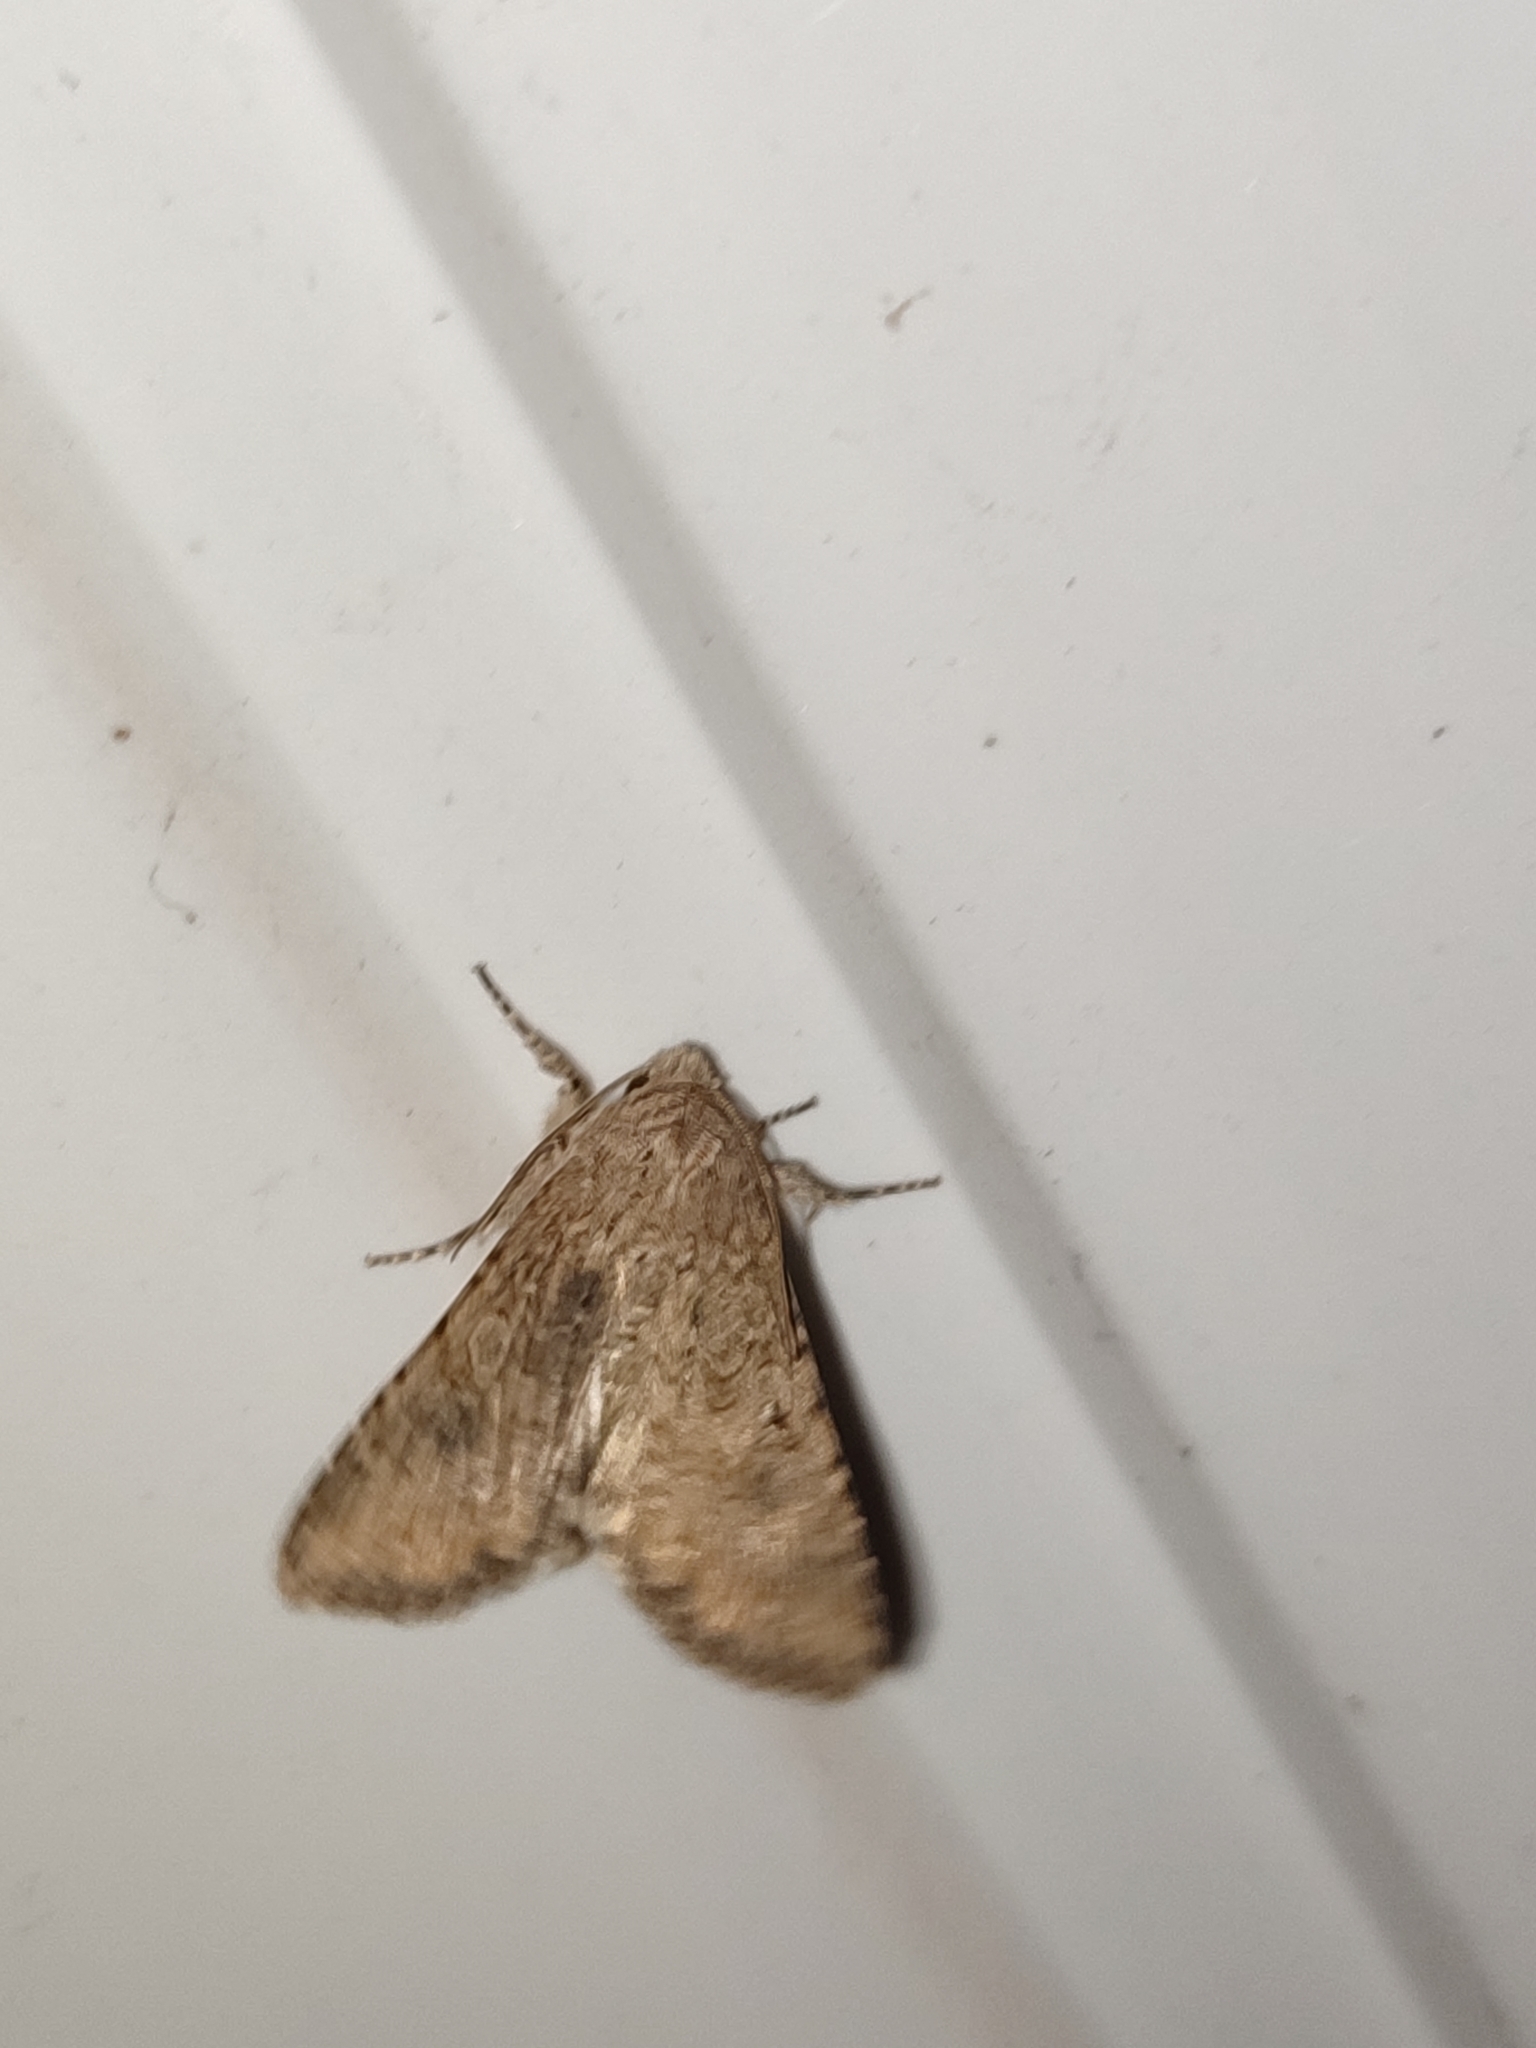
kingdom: Animalia
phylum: Arthropoda
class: Insecta
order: Lepidoptera
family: Noctuidae
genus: Anarta
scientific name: Anarta trifolii
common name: Clover cutworm moth
